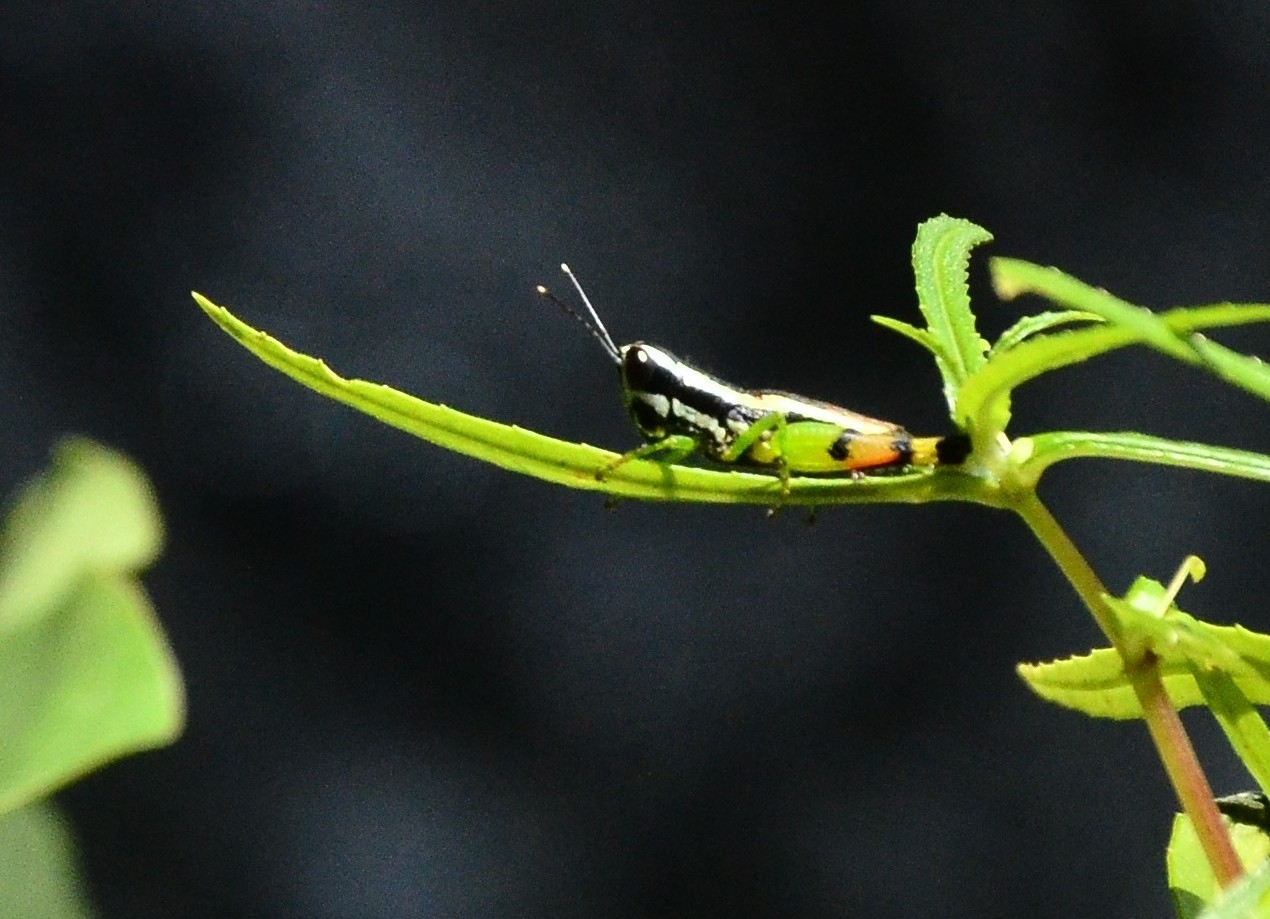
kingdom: Animalia
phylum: Arthropoda
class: Insecta
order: Orthoptera
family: Acrididae
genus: Chitaura
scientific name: Chitaura indica
